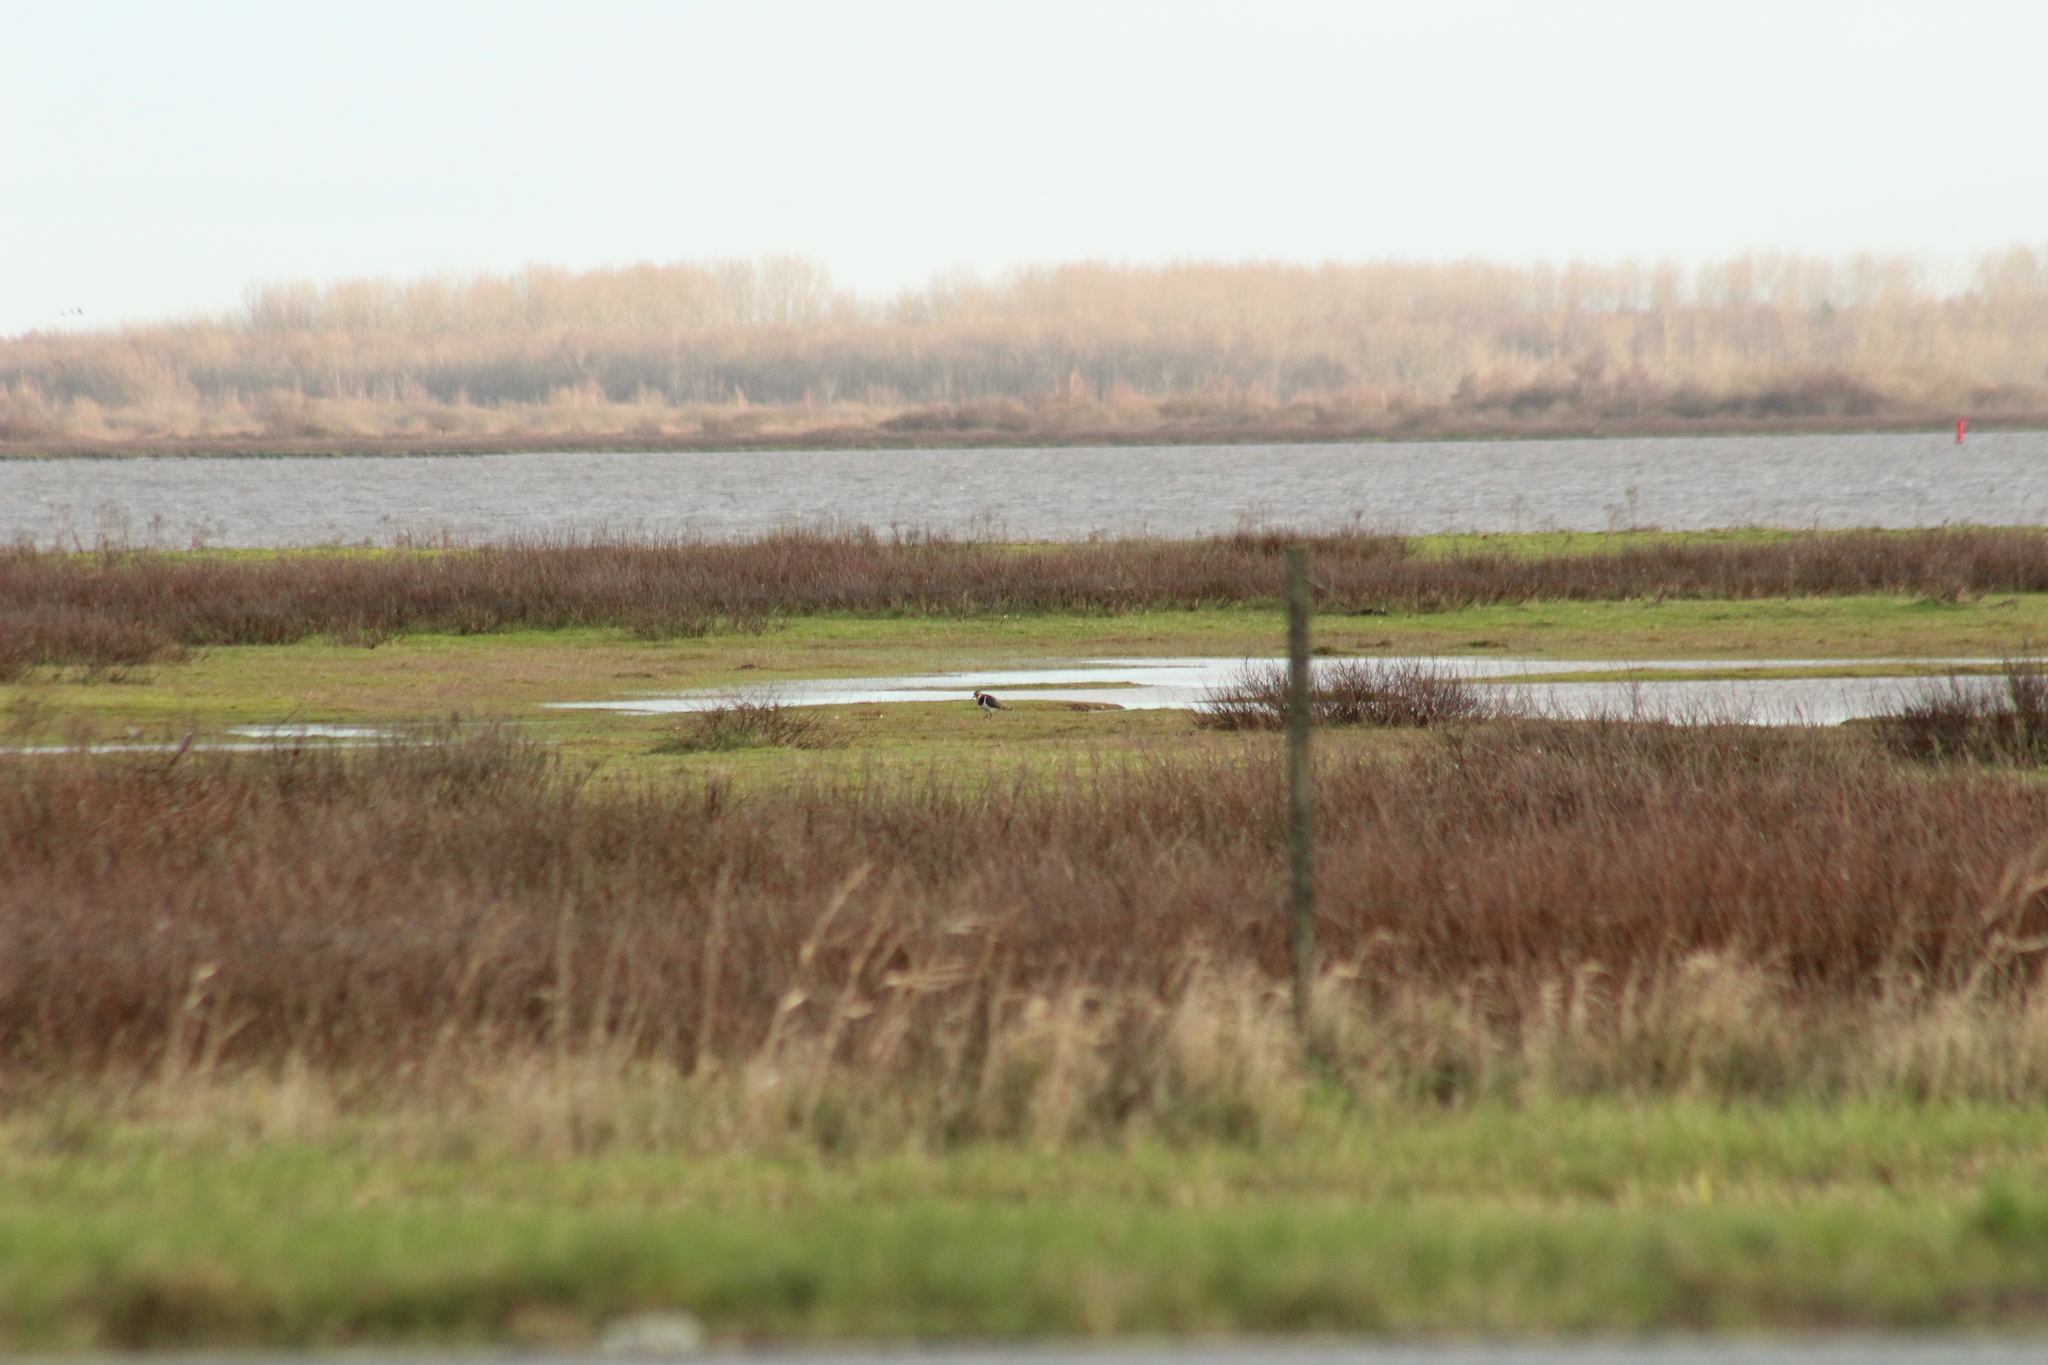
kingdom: Animalia
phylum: Chordata
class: Aves
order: Charadriiformes
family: Charadriidae
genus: Vanellus
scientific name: Vanellus vanellus
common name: Northern lapwing
